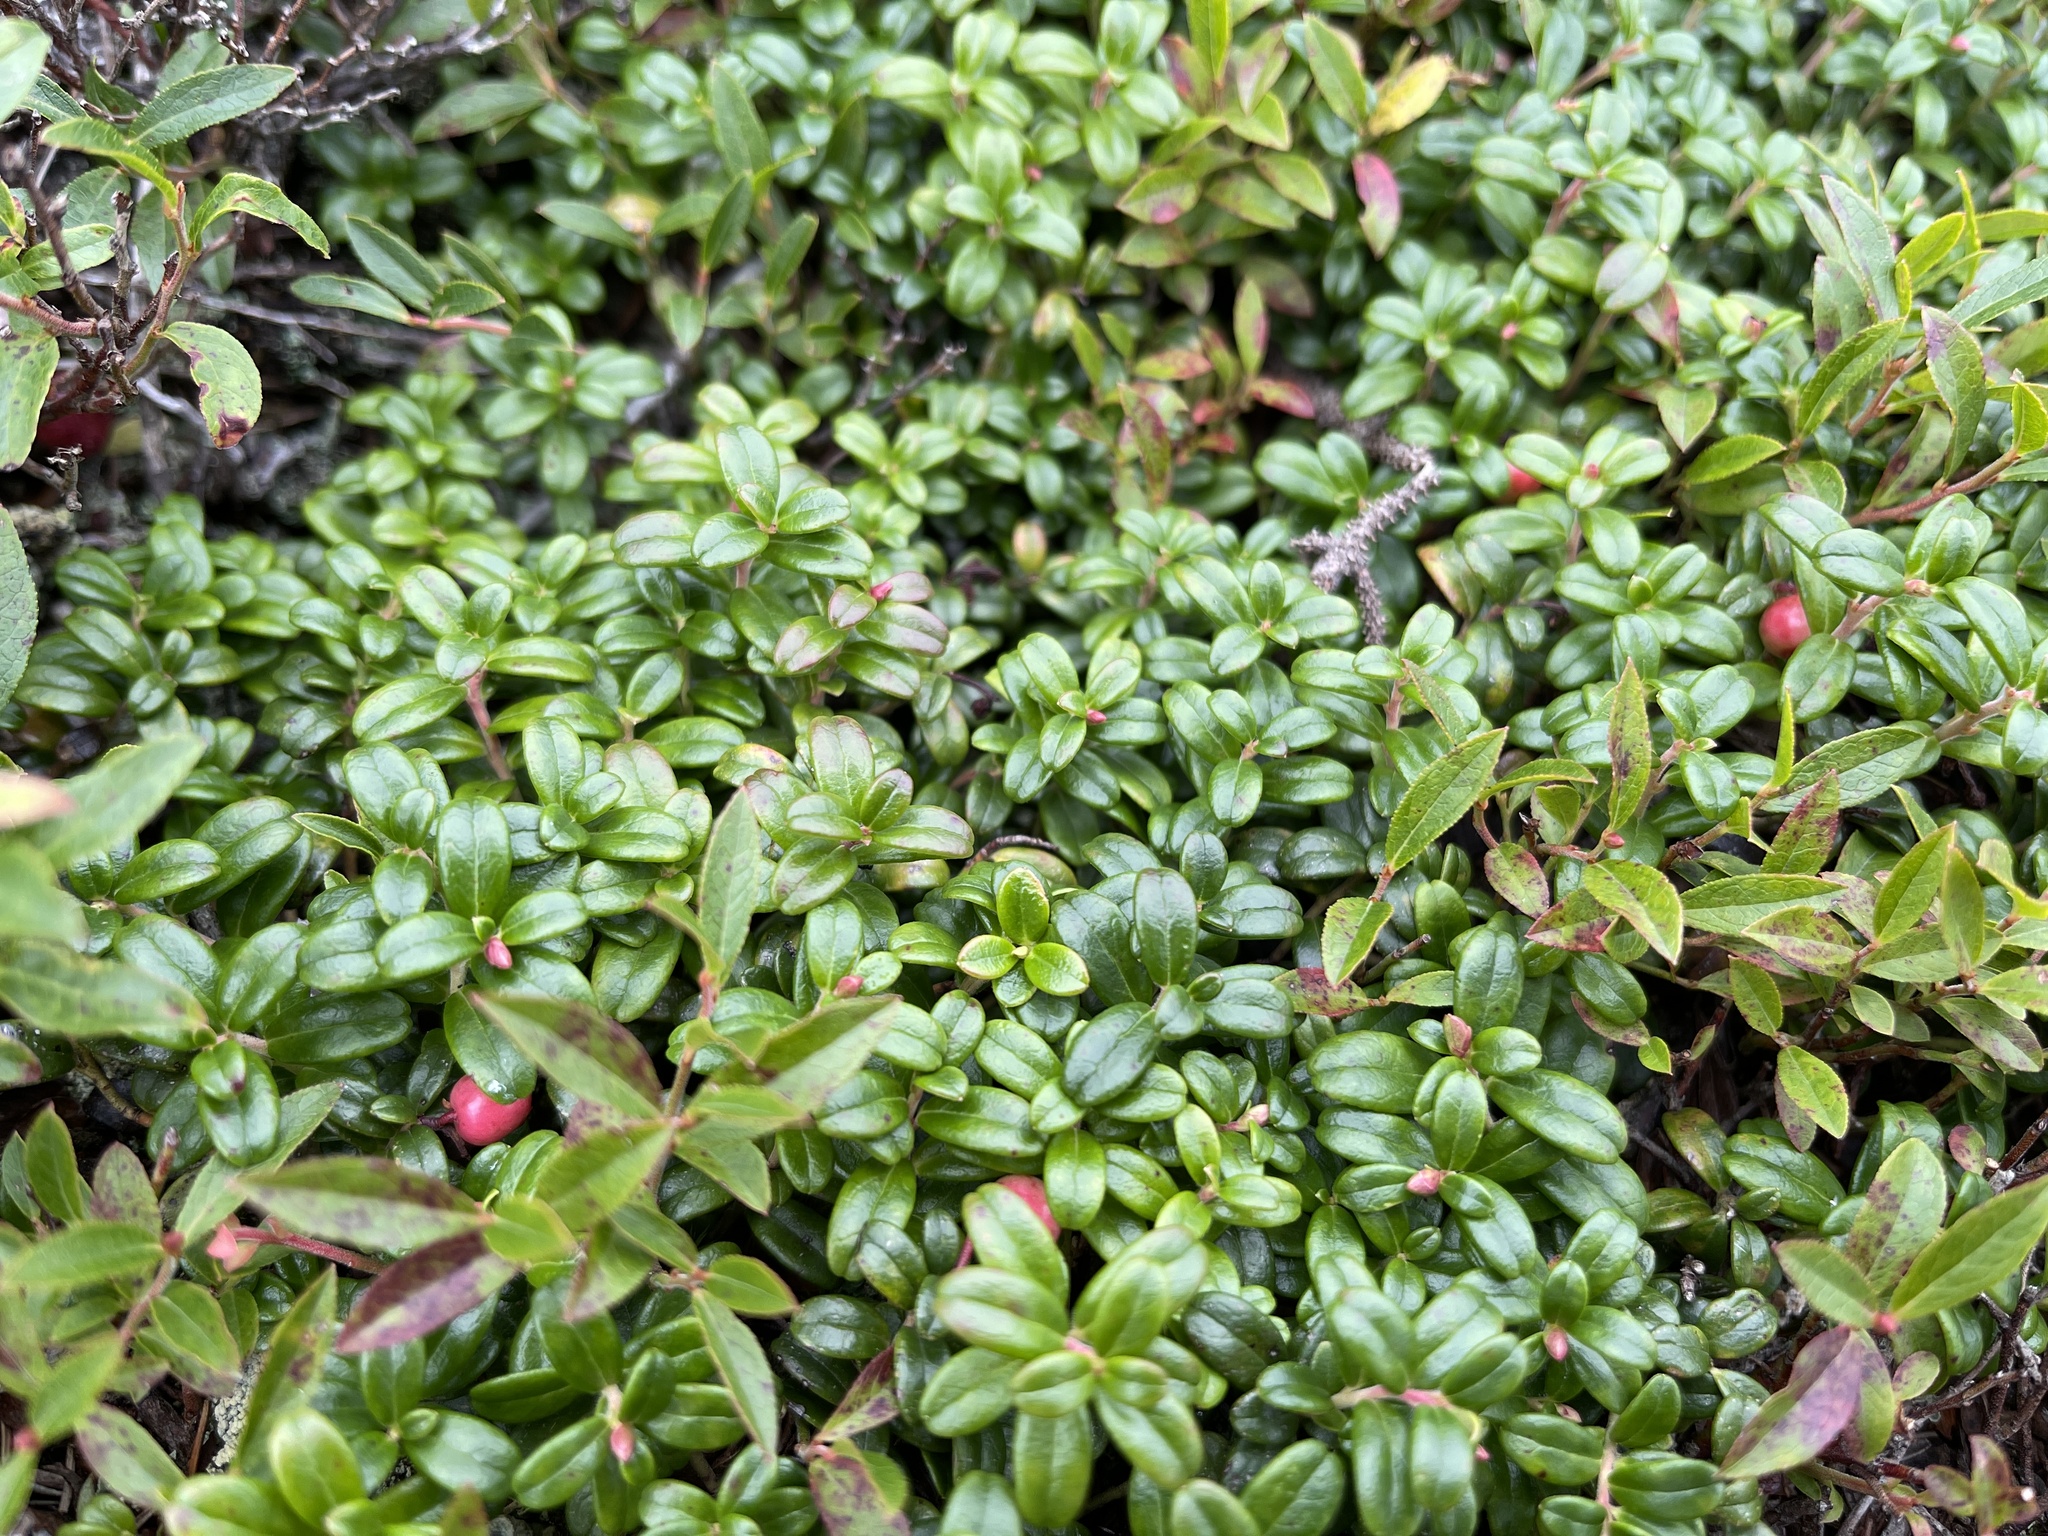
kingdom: Plantae
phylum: Tracheophyta
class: Magnoliopsida
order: Ericales
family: Ericaceae
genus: Vaccinium
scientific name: Vaccinium vitis-idaea
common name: Cowberry
